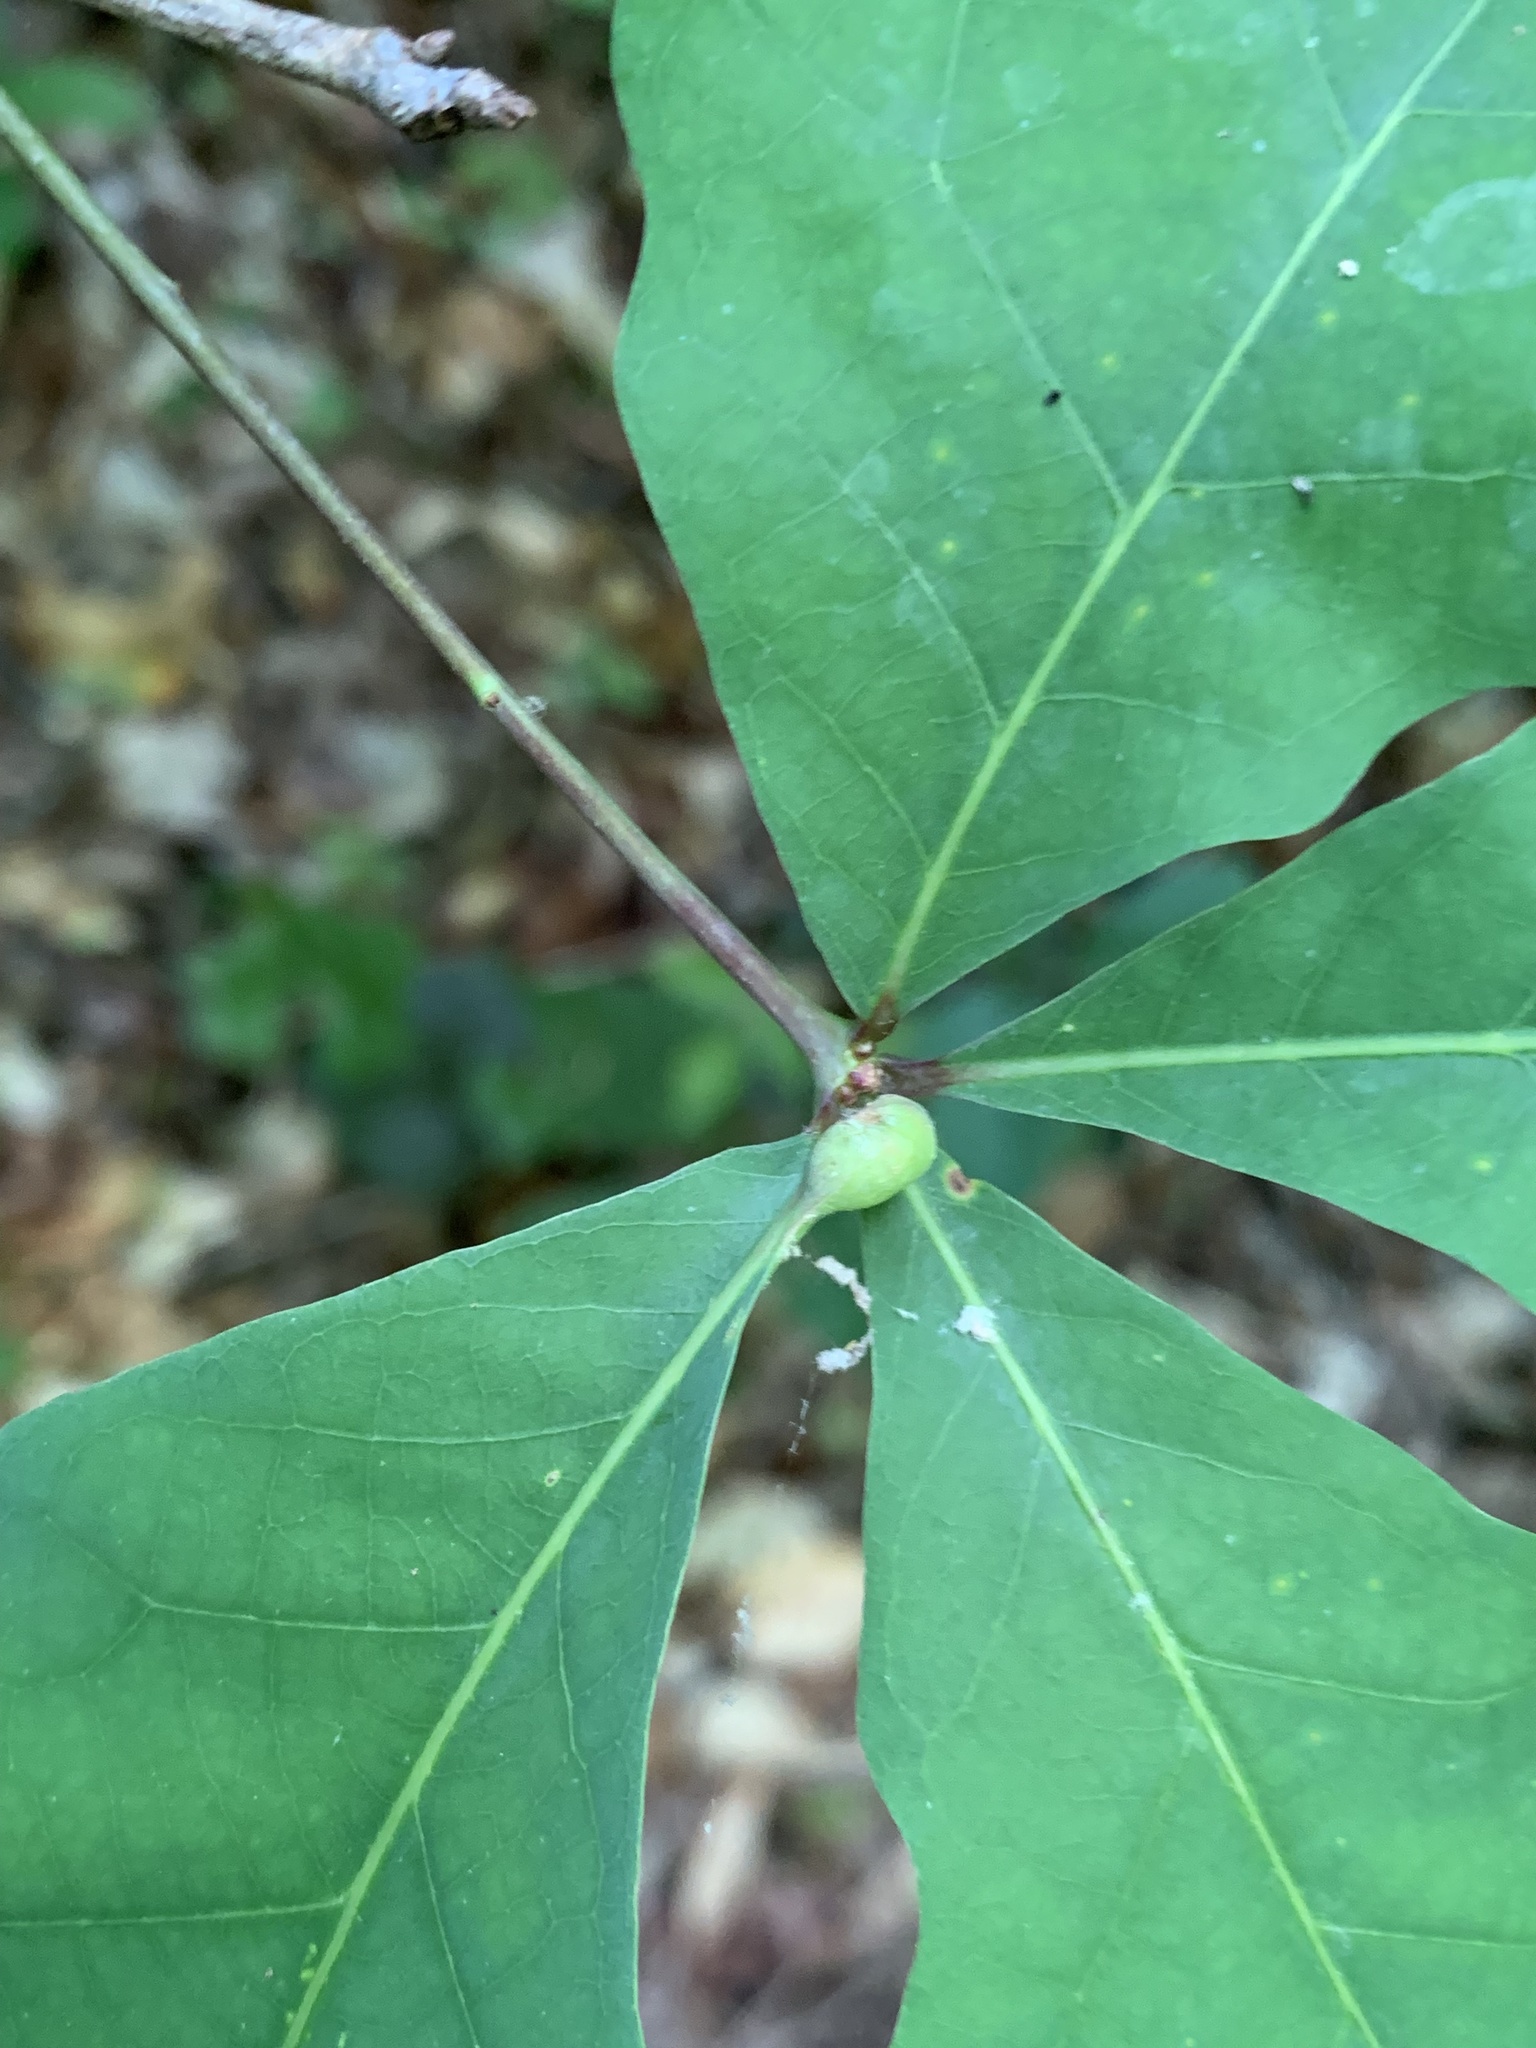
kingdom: Animalia
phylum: Arthropoda
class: Insecta
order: Hymenoptera
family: Cynipidae
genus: Andricus
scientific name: Andricus
